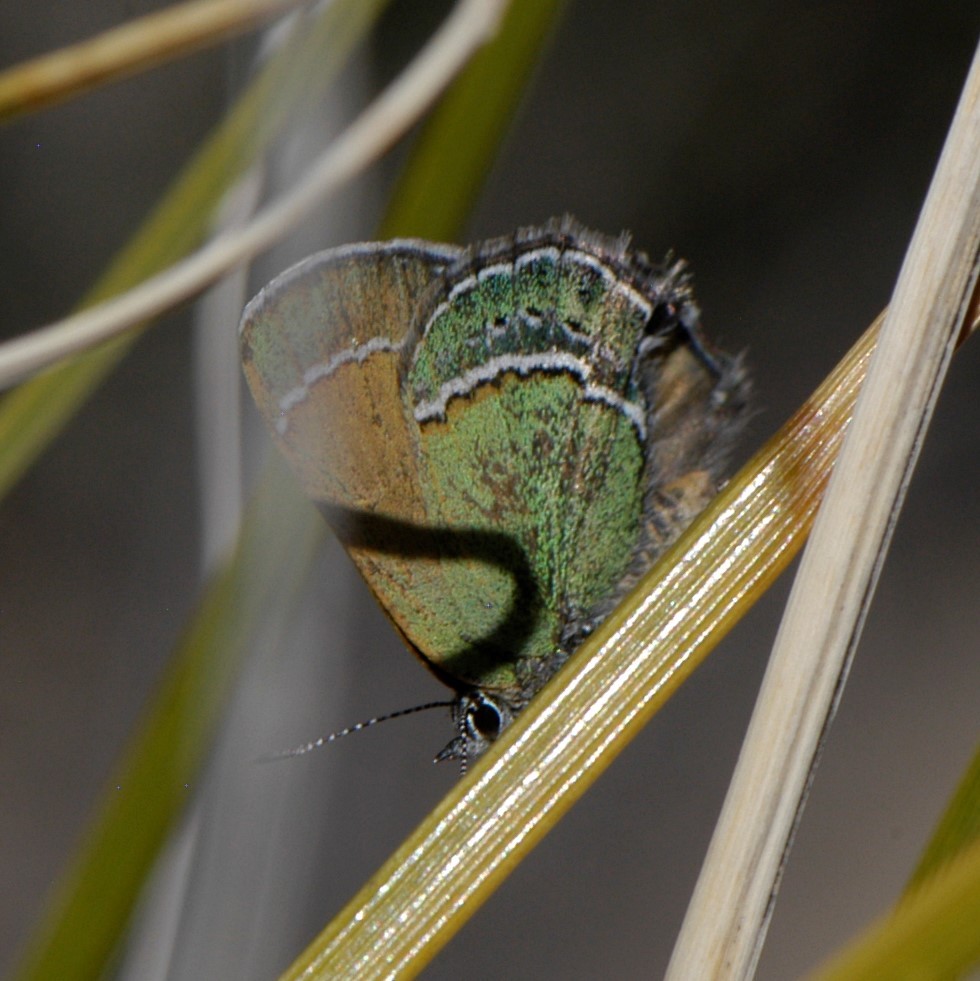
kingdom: Animalia
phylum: Arthropoda
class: Insecta
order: Lepidoptera
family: Lycaenidae
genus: Sandia
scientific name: Sandia mcfarlandi
